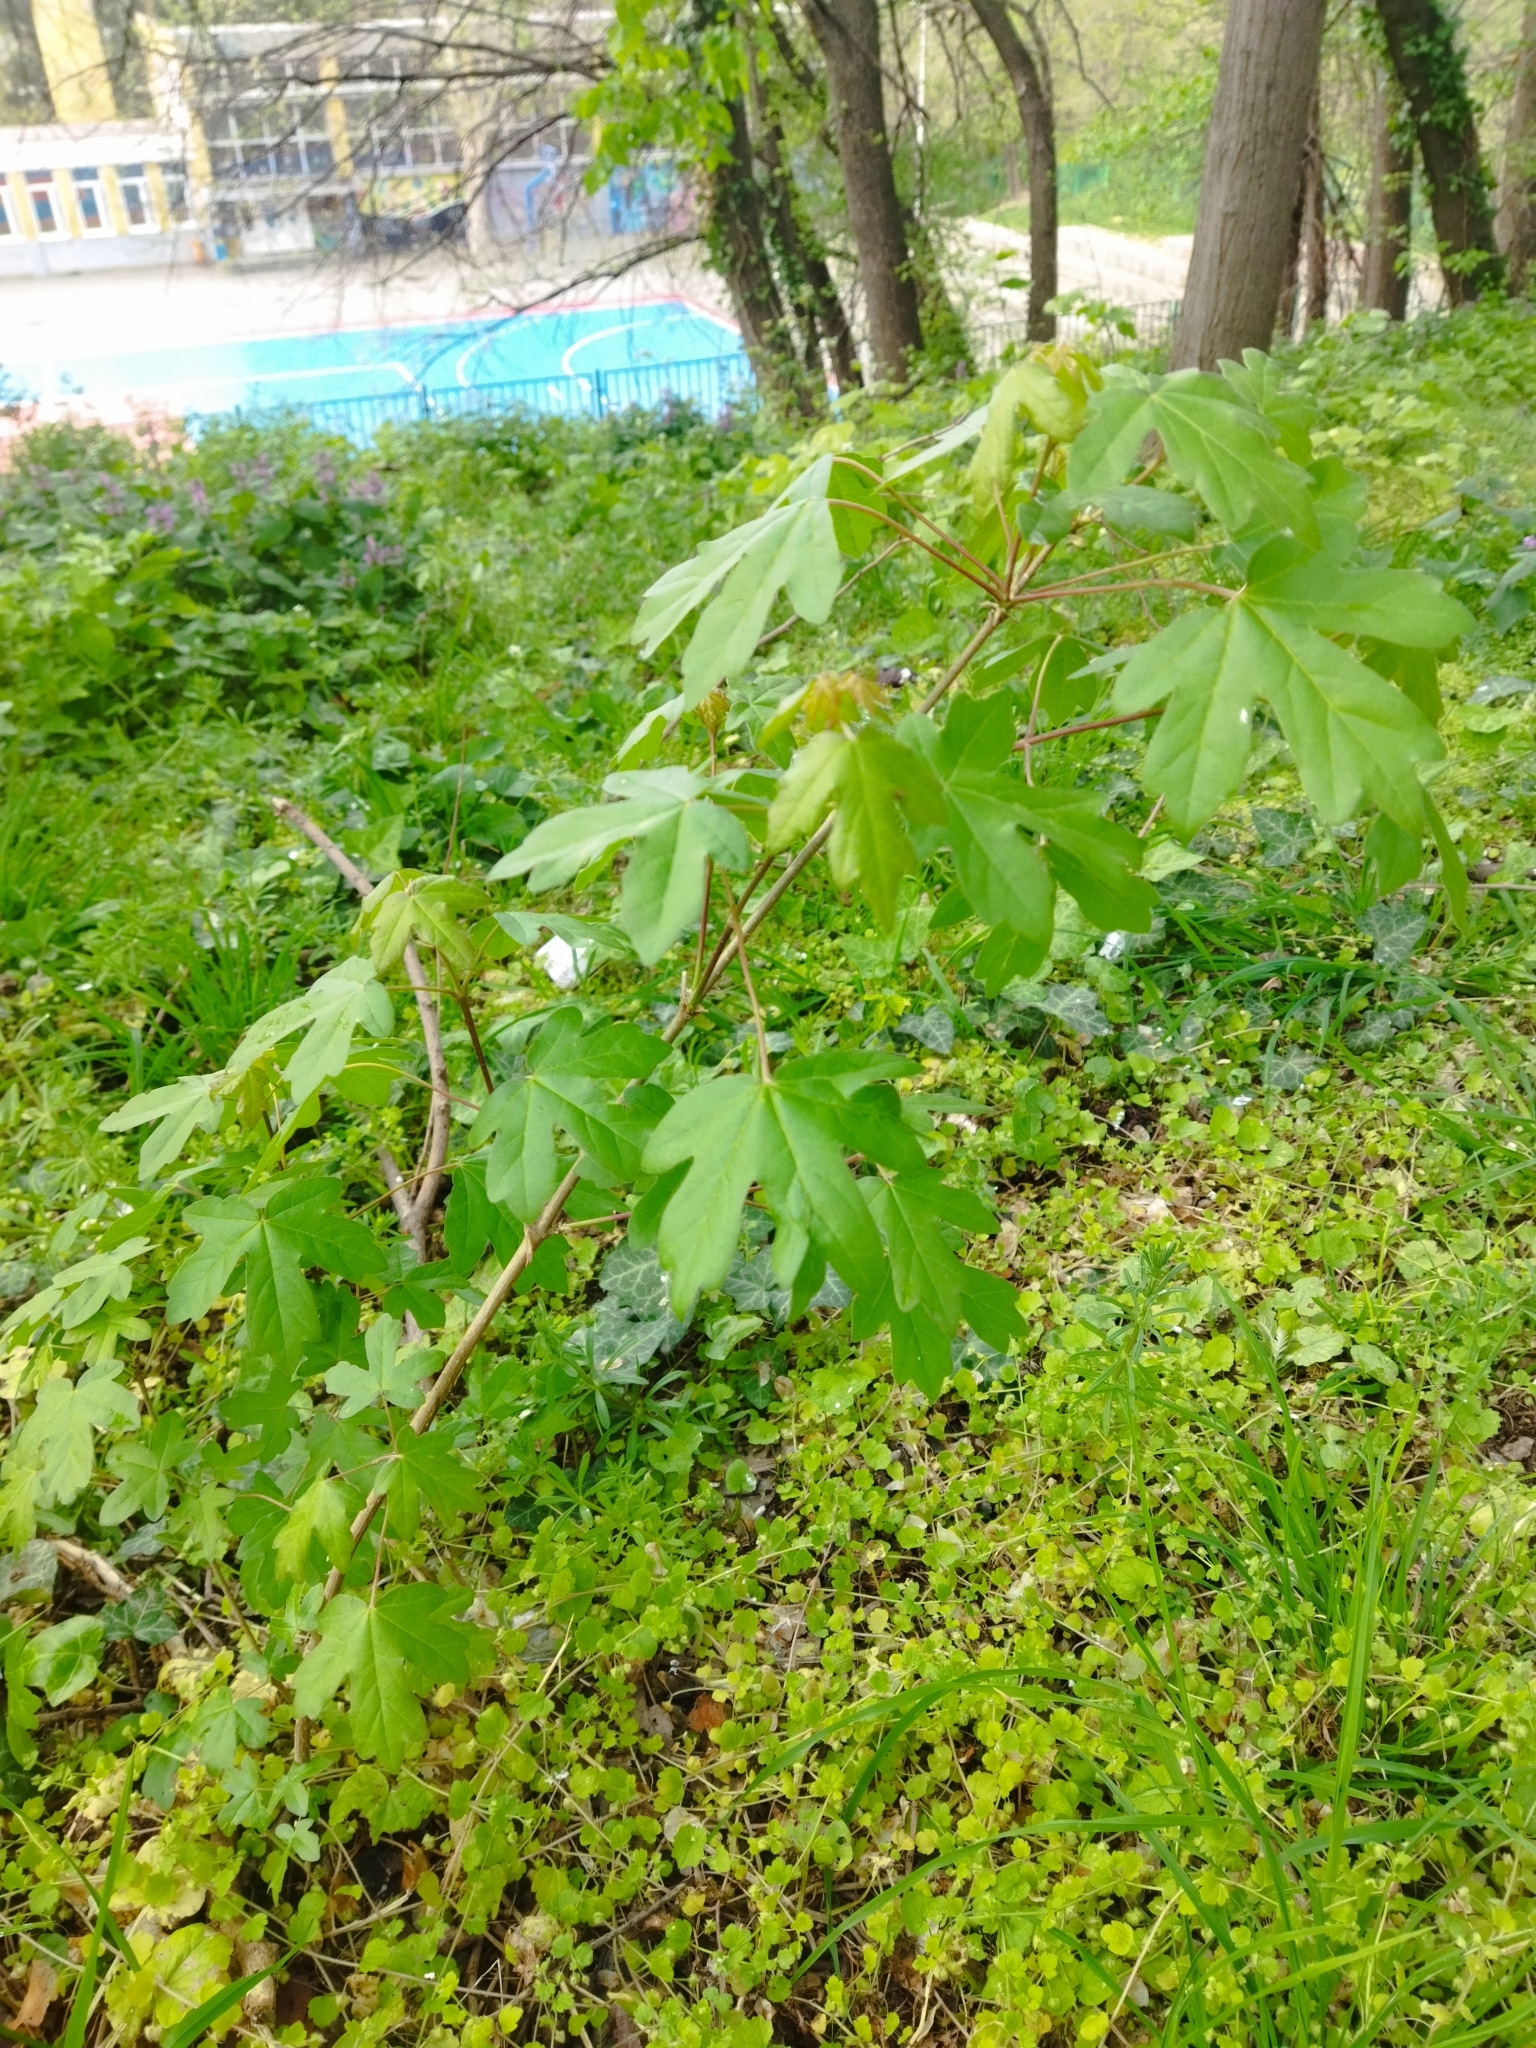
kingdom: Plantae
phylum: Tracheophyta
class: Magnoliopsida
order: Sapindales
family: Sapindaceae
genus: Acer
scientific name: Acer campestre
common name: Field maple
